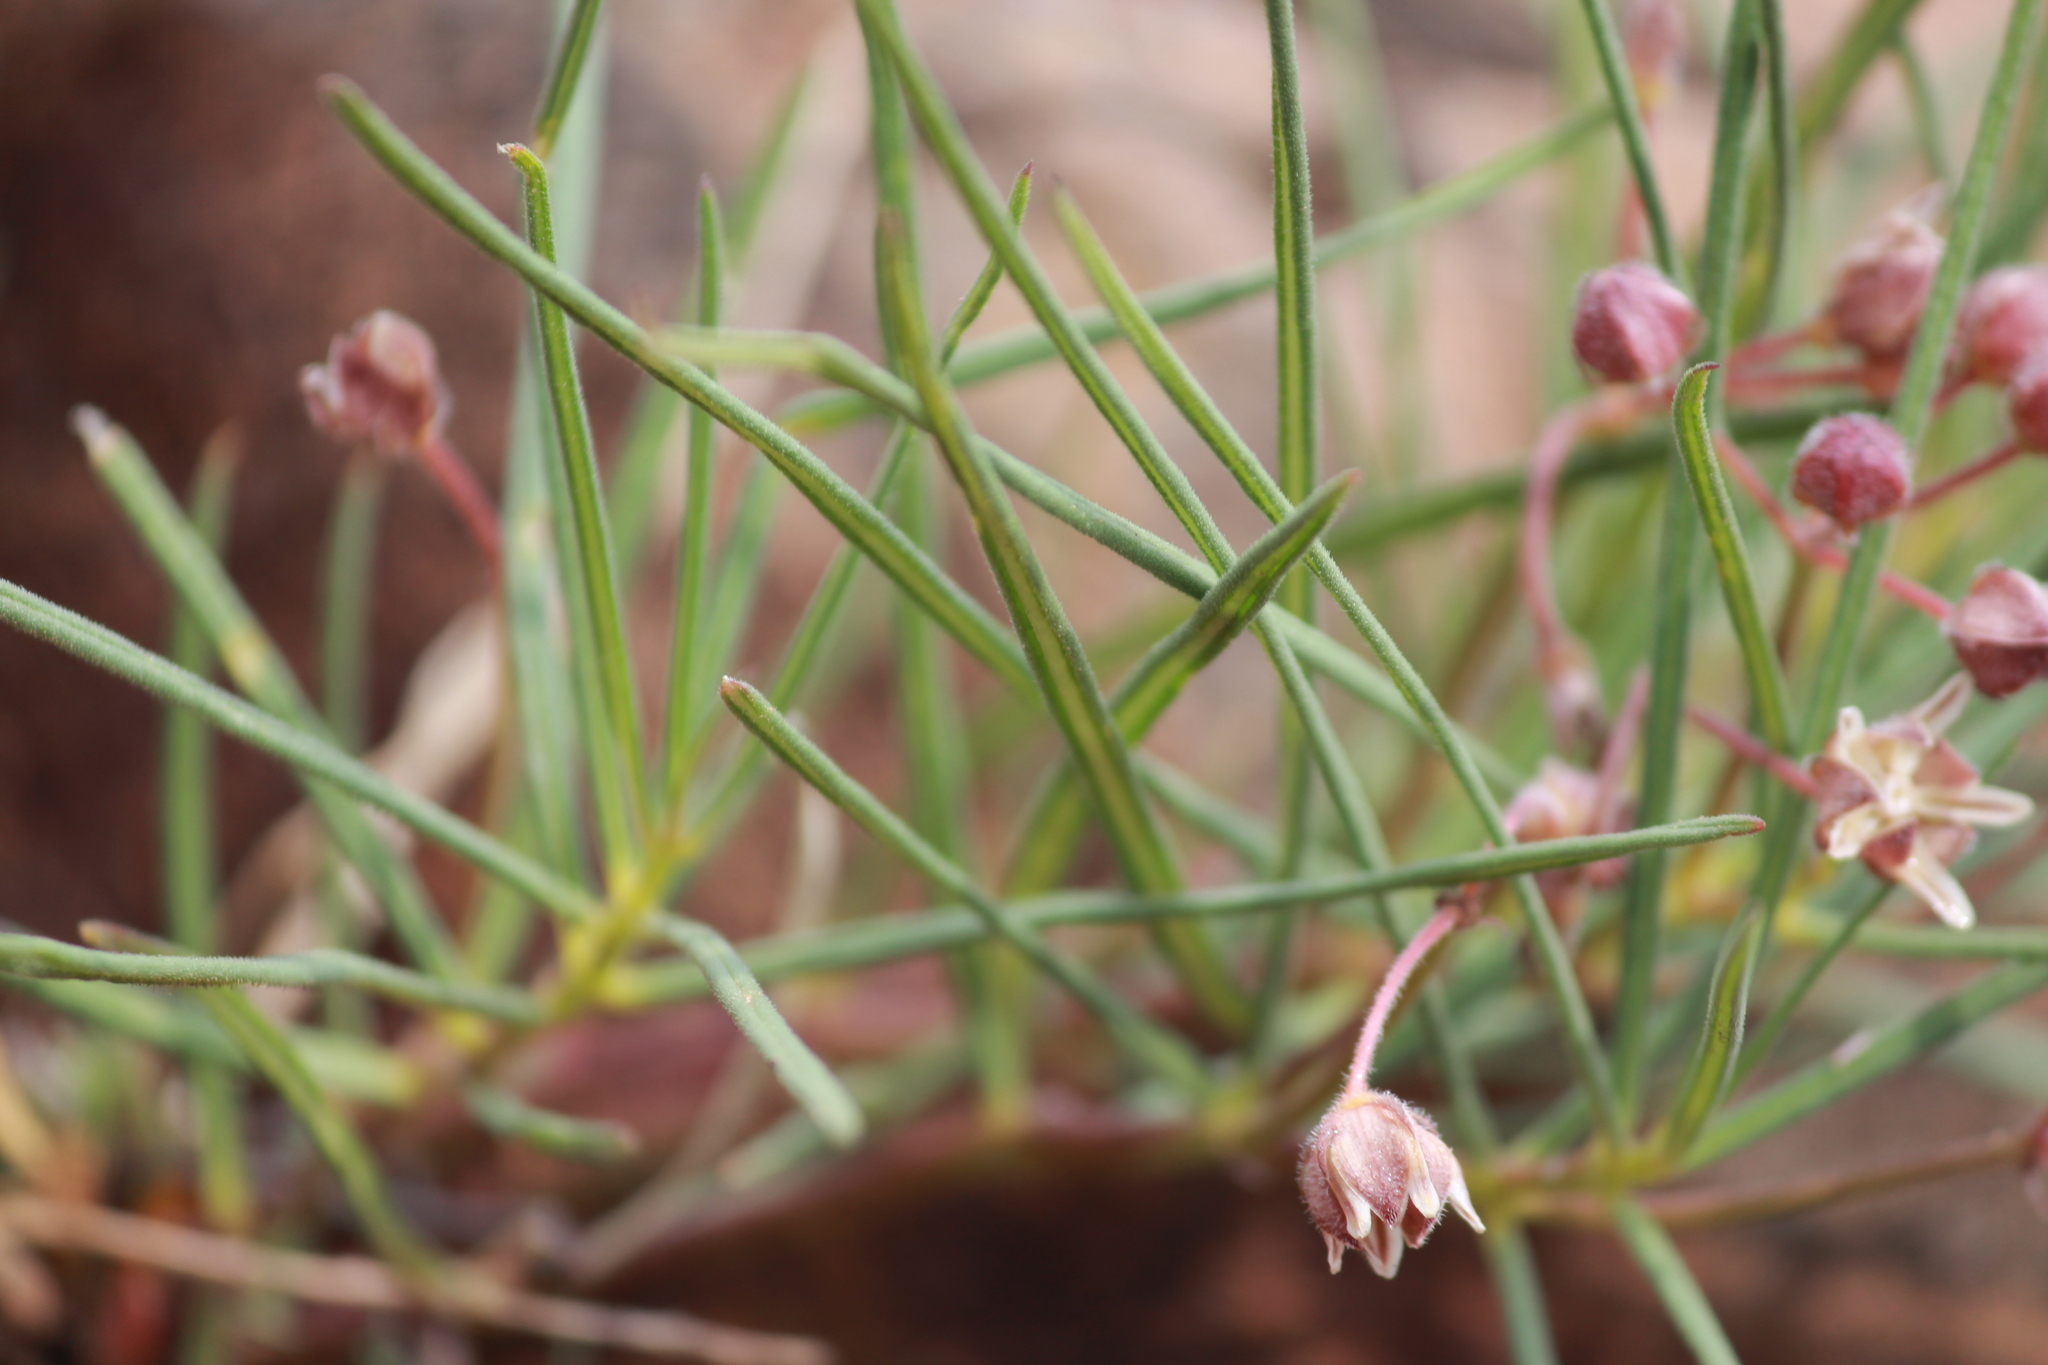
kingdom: Plantae
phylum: Tracheophyta
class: Magnoliopsida
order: Gentianales
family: Apocynaceae
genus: Asclepias
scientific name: Asclepias stellifera
